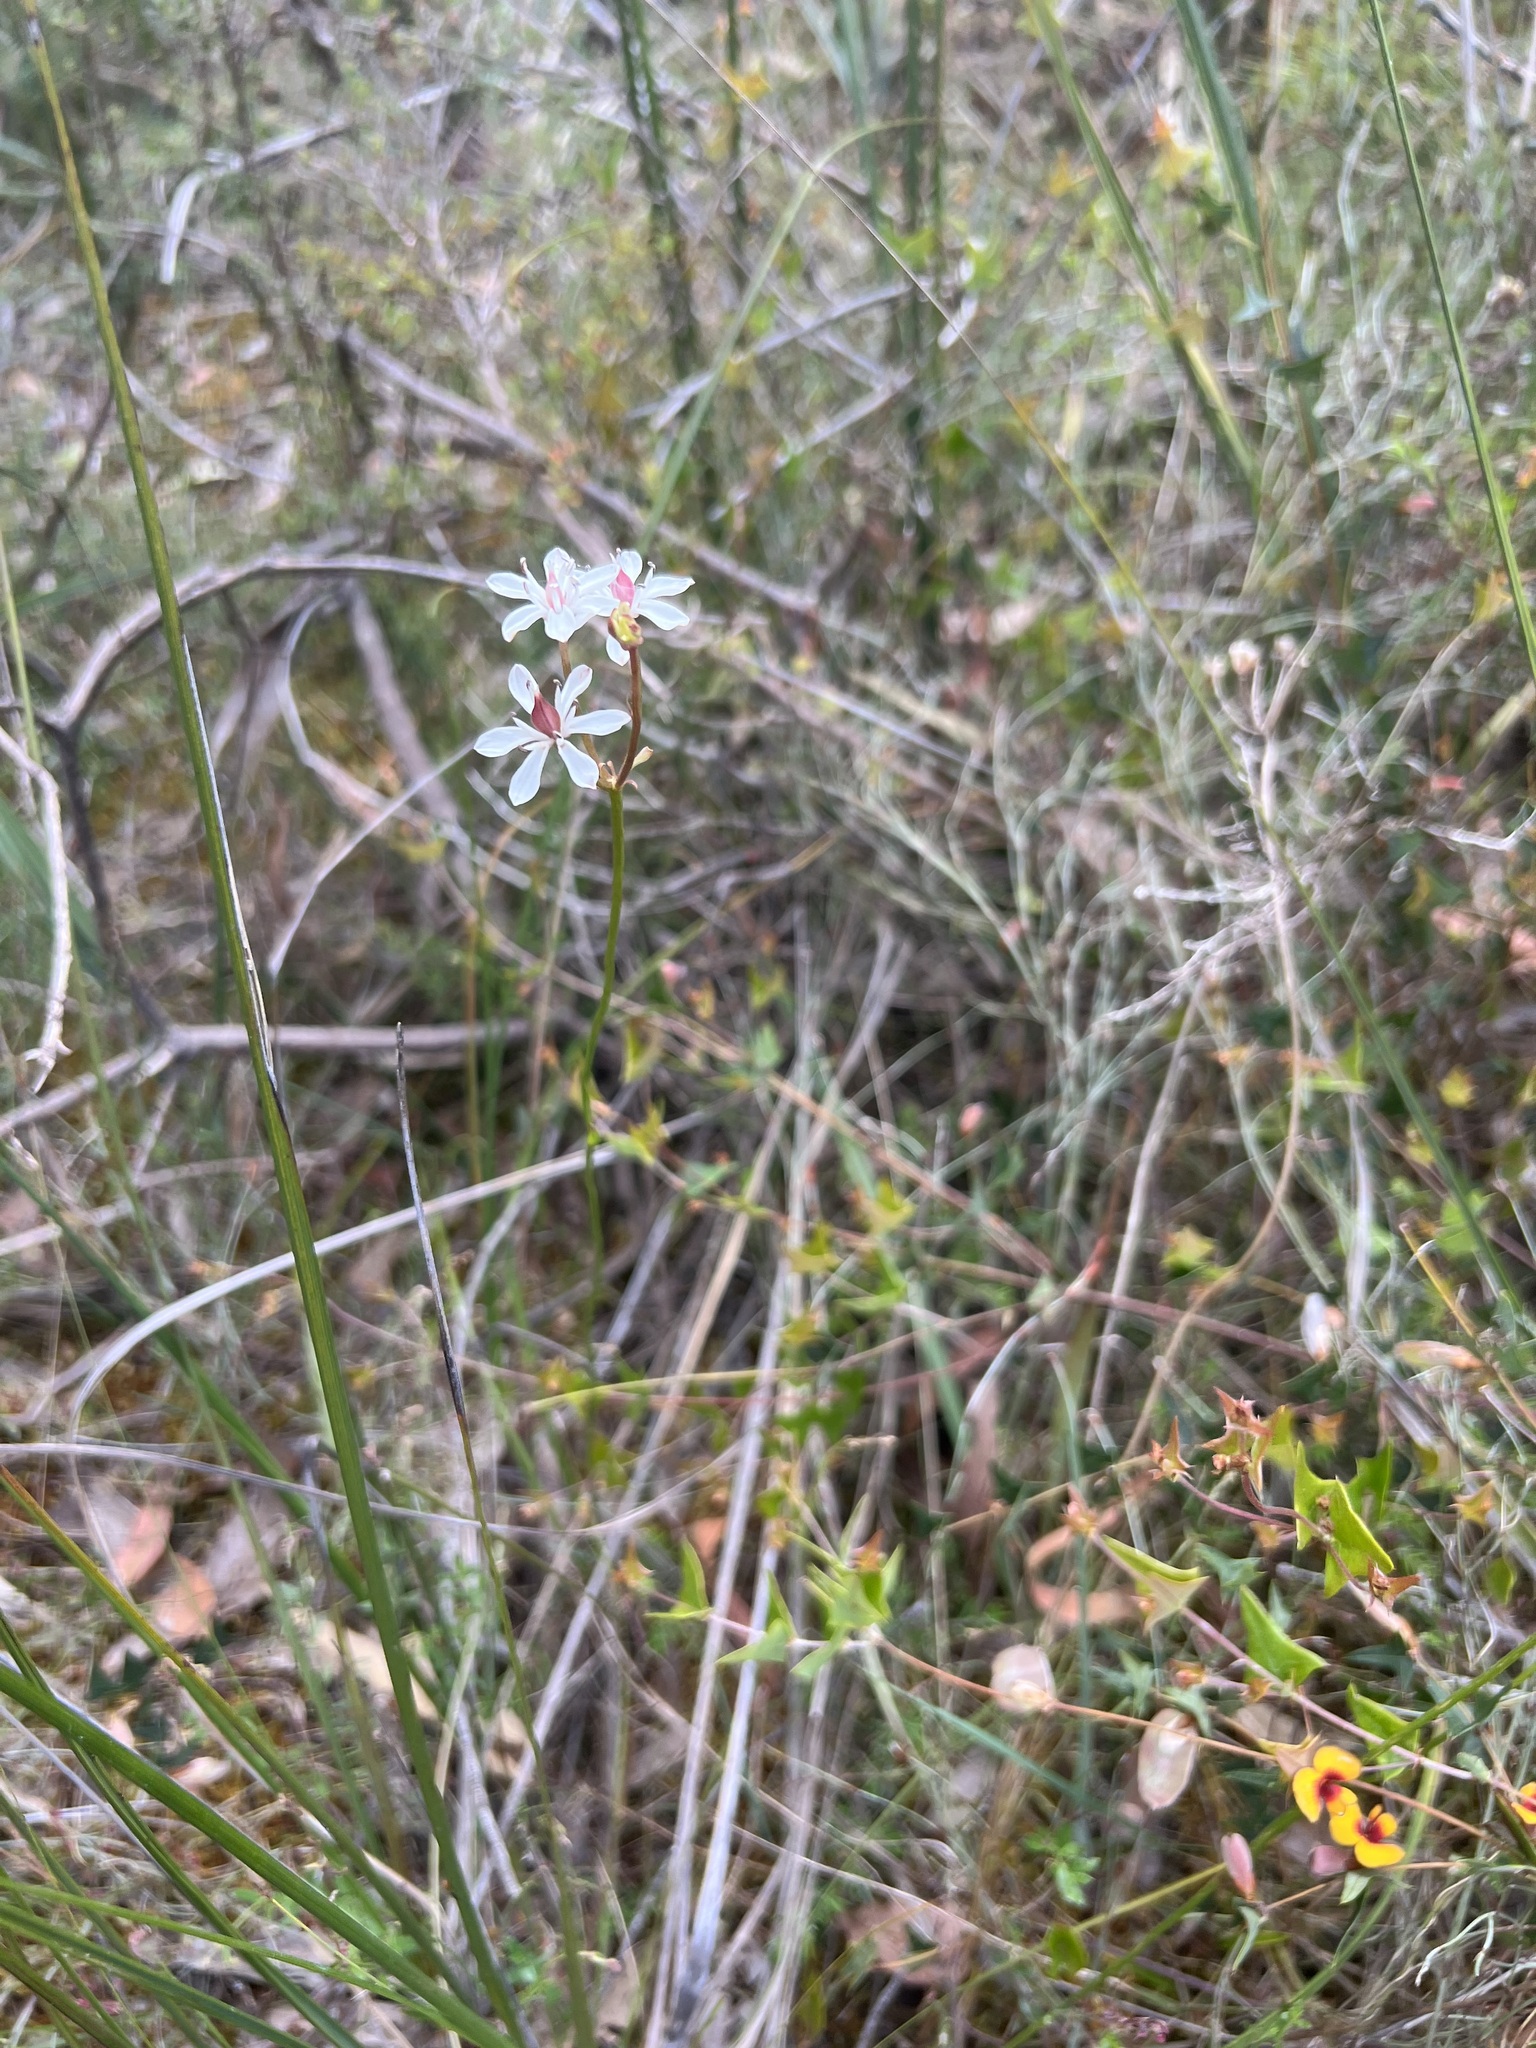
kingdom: Plantae
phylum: Tracheophyta
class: Liliopsida
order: Liliales
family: Colchicaceae
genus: Burchardia
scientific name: Burchardia umbellata
